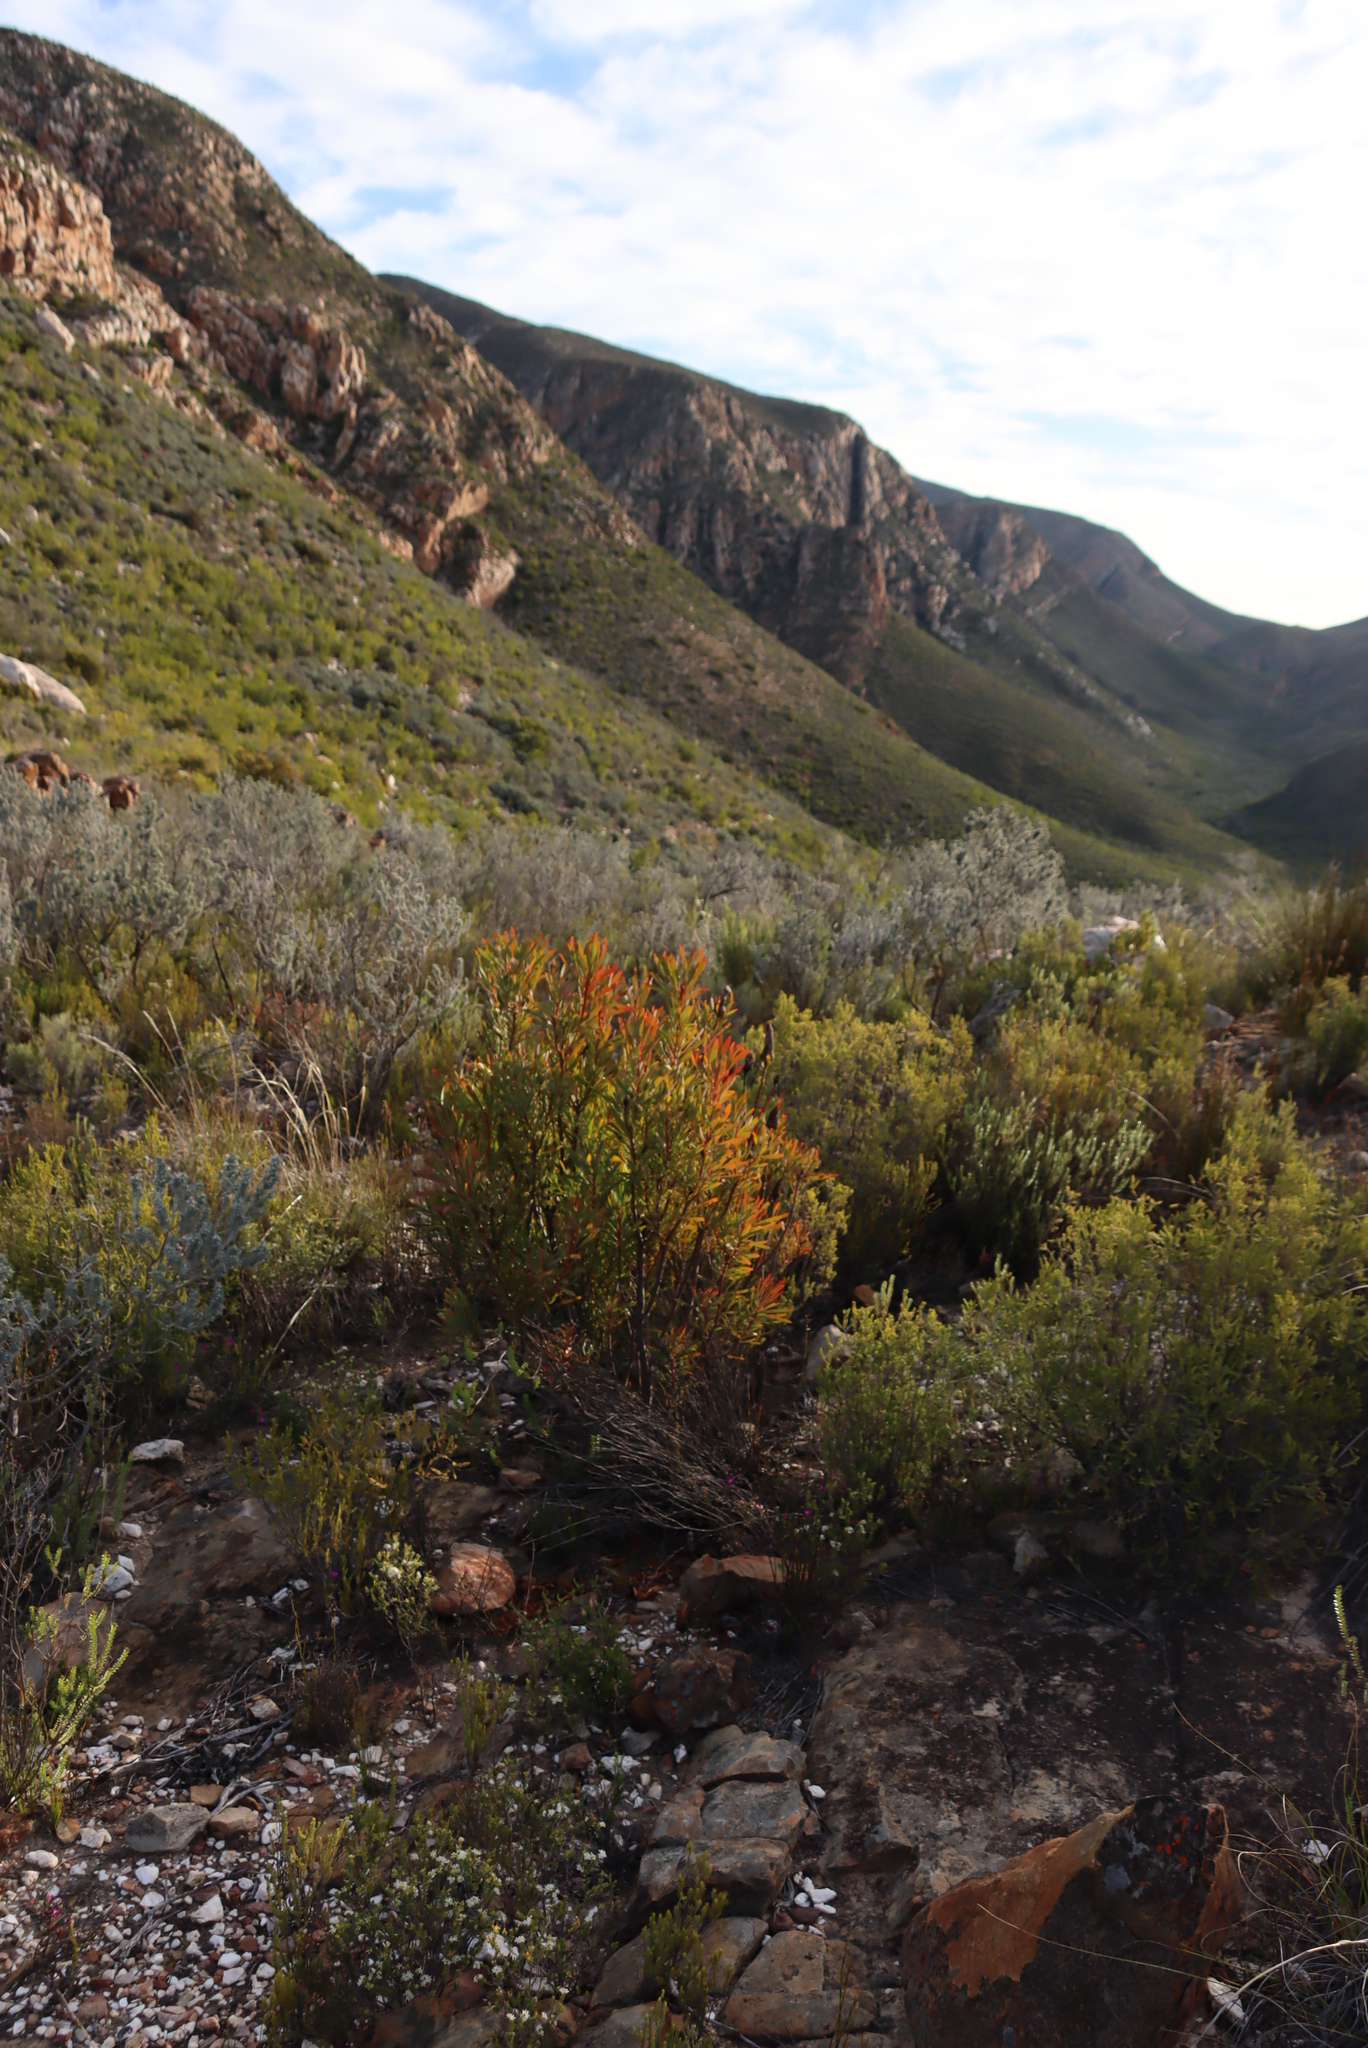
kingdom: Plantae
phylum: Tracheophyta
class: Magnoliopsida
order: Proteales
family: Proteaceae
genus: Protea
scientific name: Protea repens
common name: Sugarbush
